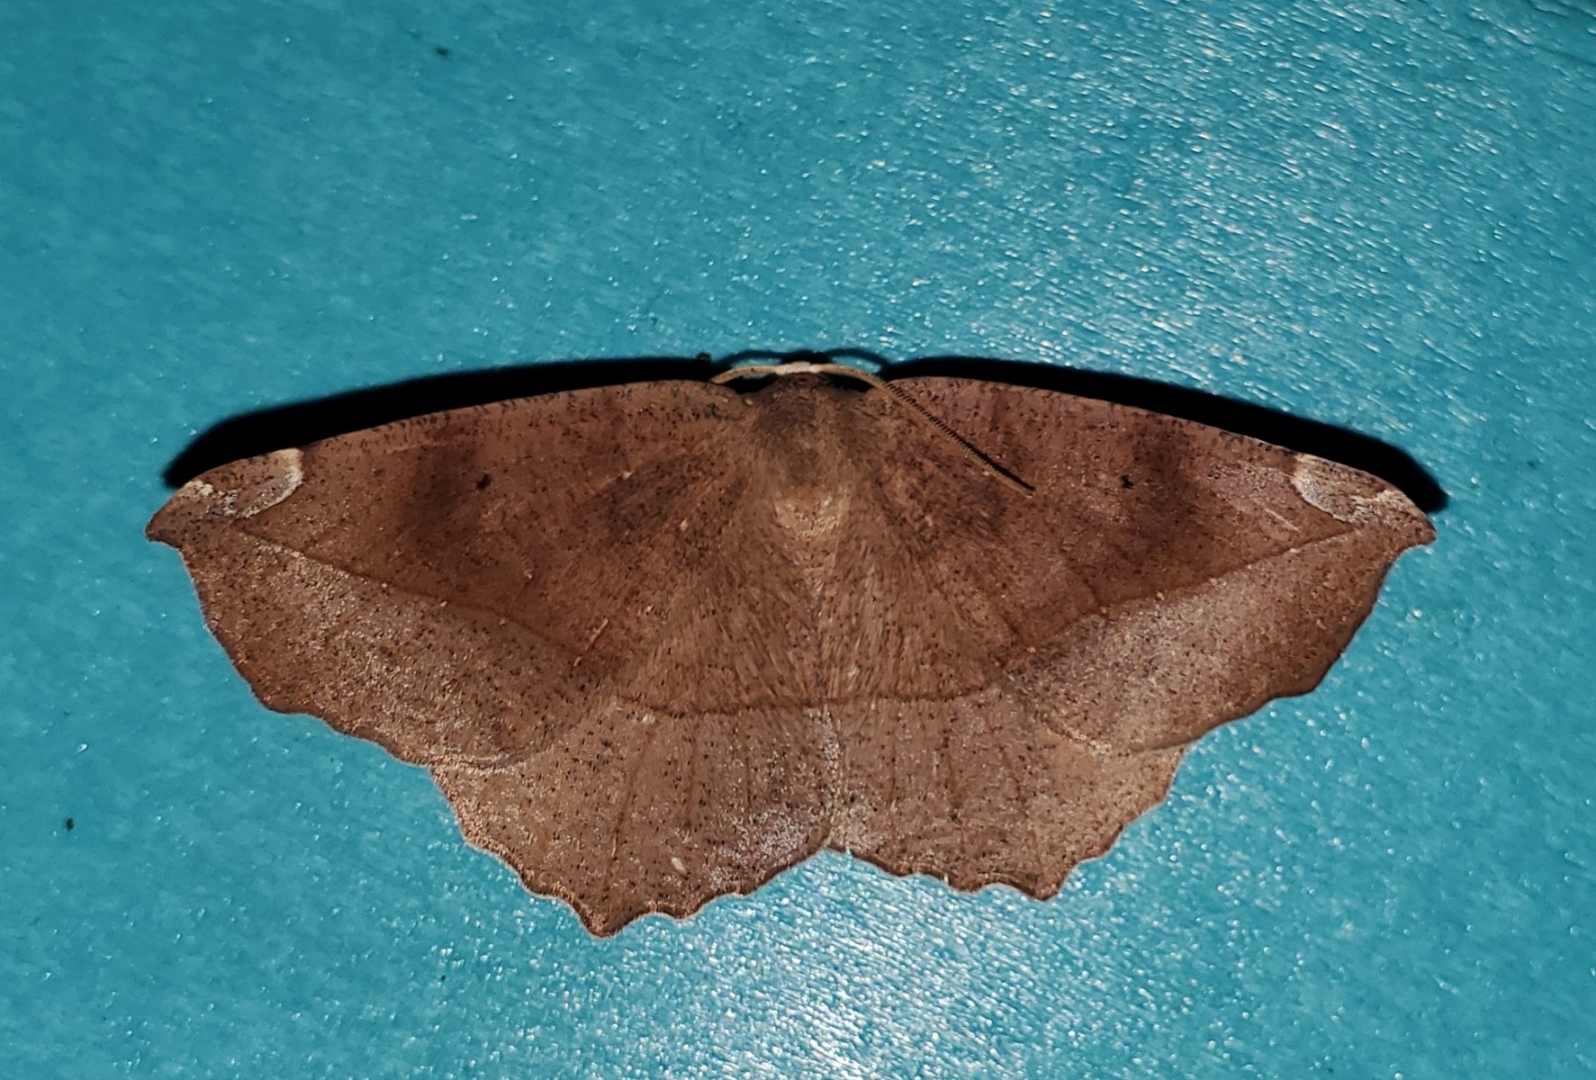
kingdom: Animalia
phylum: Arthropoda
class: Insecta
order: Lepidoptera
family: Geometridae
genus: Eutrapela
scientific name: Eutrapela clemataria
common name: Curved-toothed geometer
